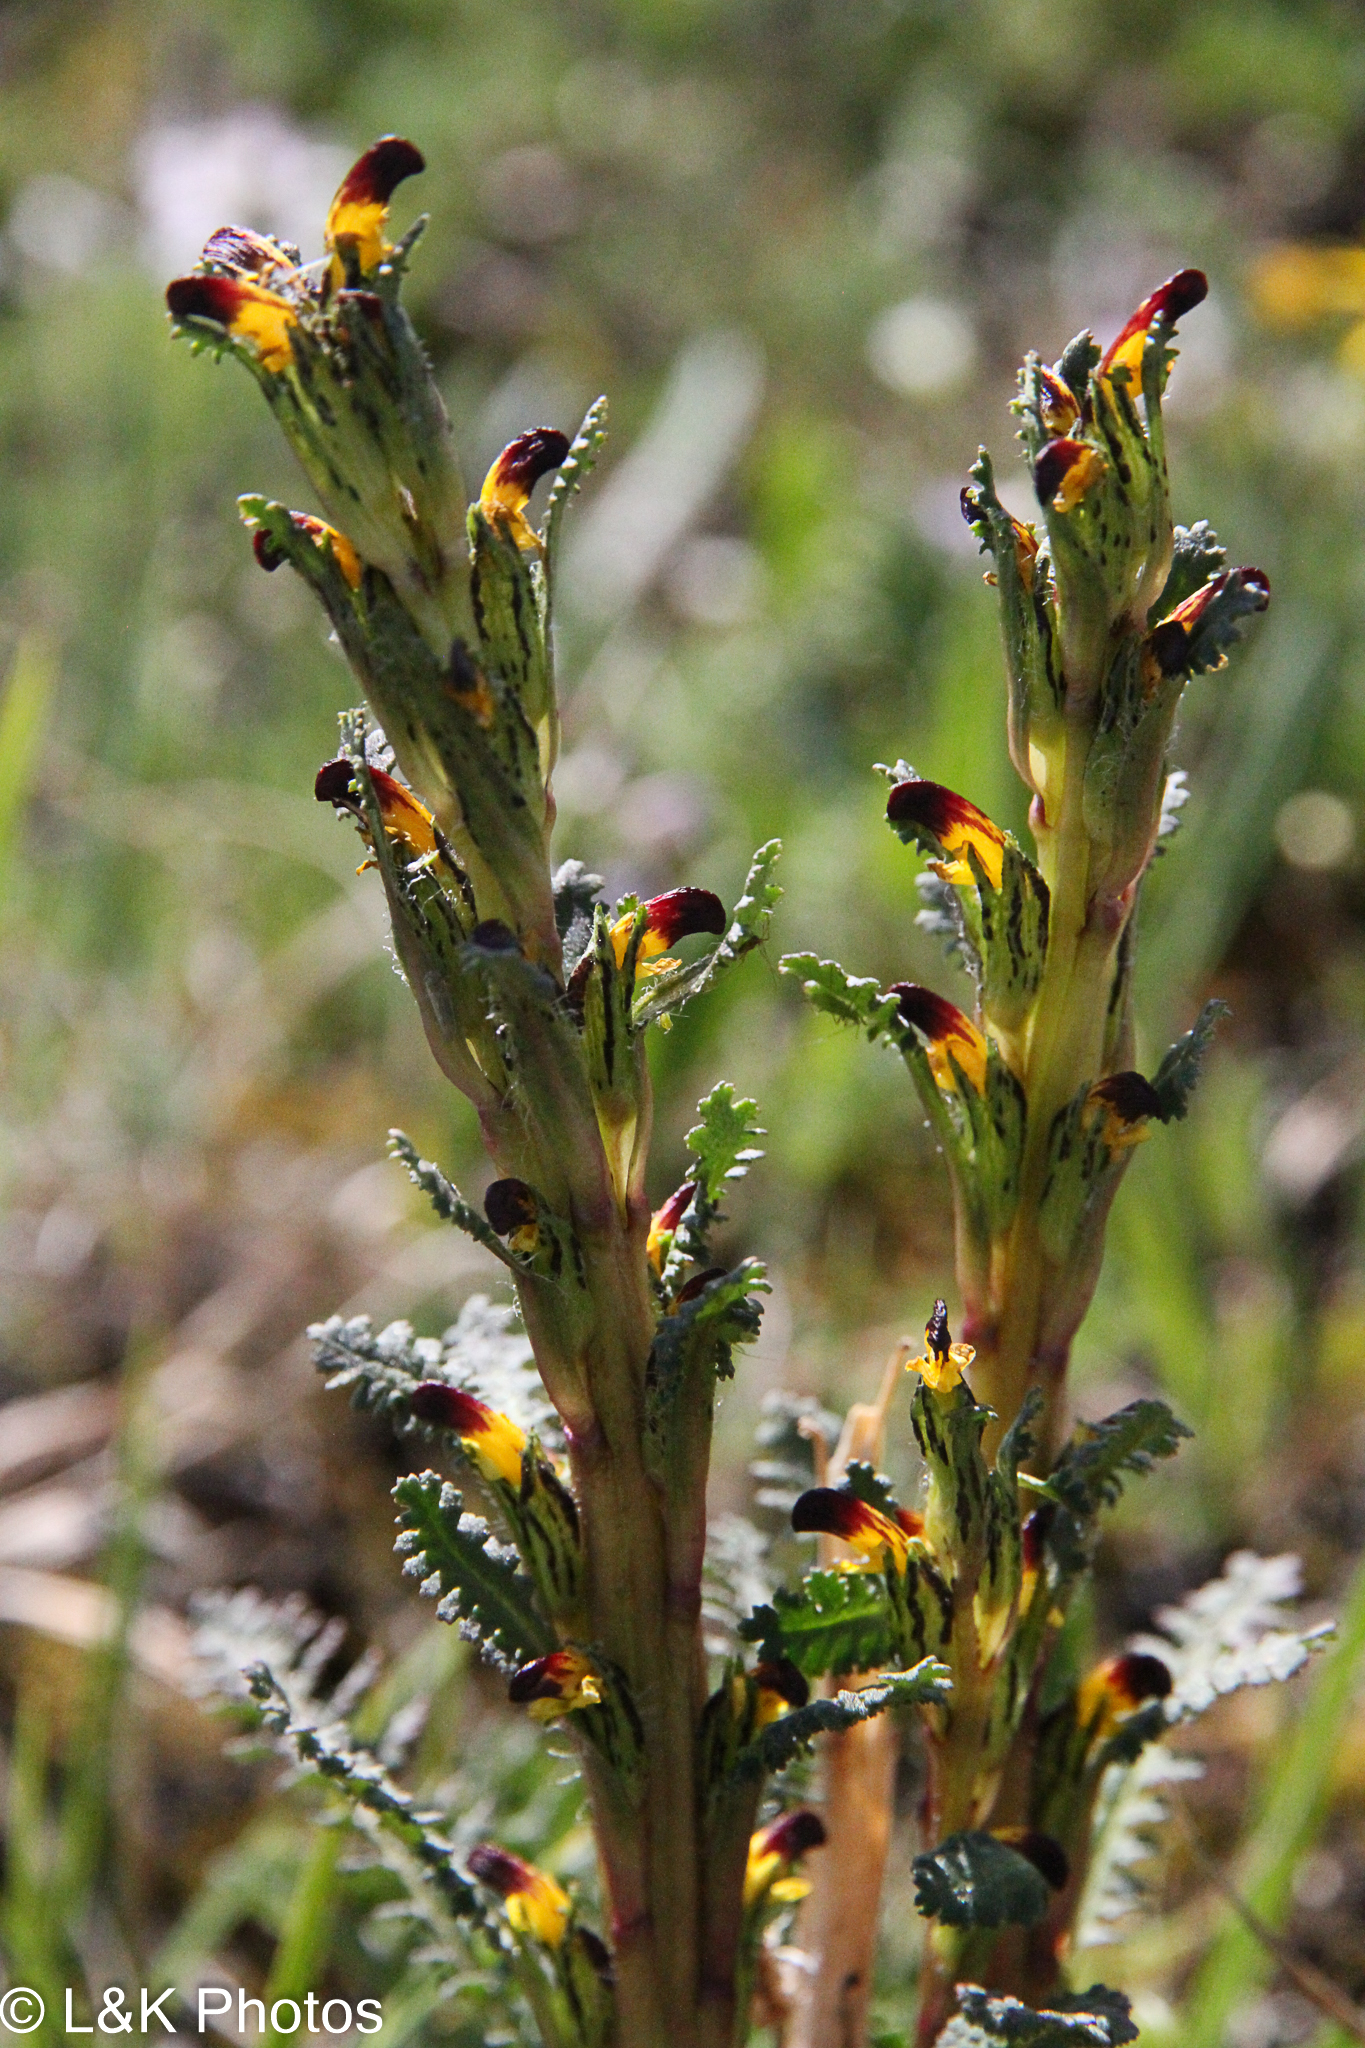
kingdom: Plantae
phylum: Tracheophyta
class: Magnoliopsida
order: Lamiales
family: Orobanchaceae
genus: Pedicularis
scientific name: Pedicularis flammea
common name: Flame-coloured lousewort
